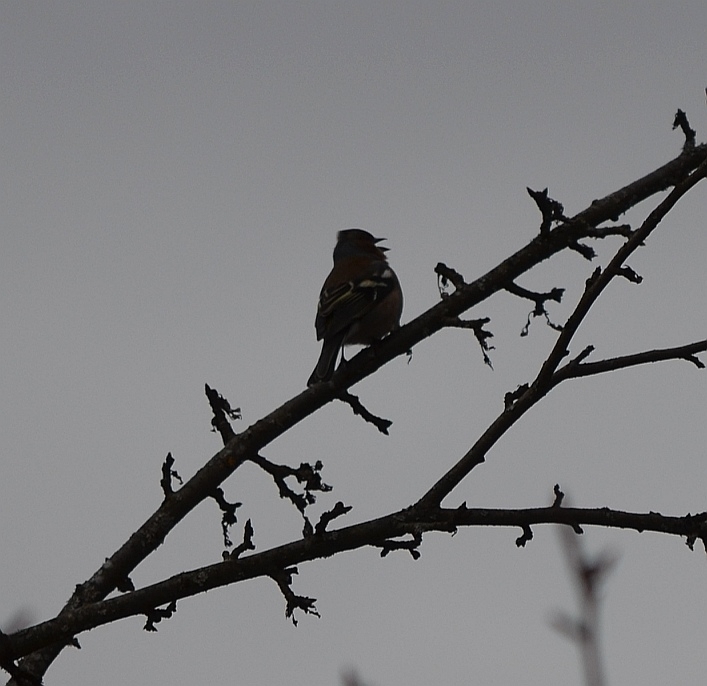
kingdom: Animalia
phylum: Chordata
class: Aves
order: Passeriformes
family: Fringillidae
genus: Fringilla
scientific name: Fringilla coelebs
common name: Common chaffinch
